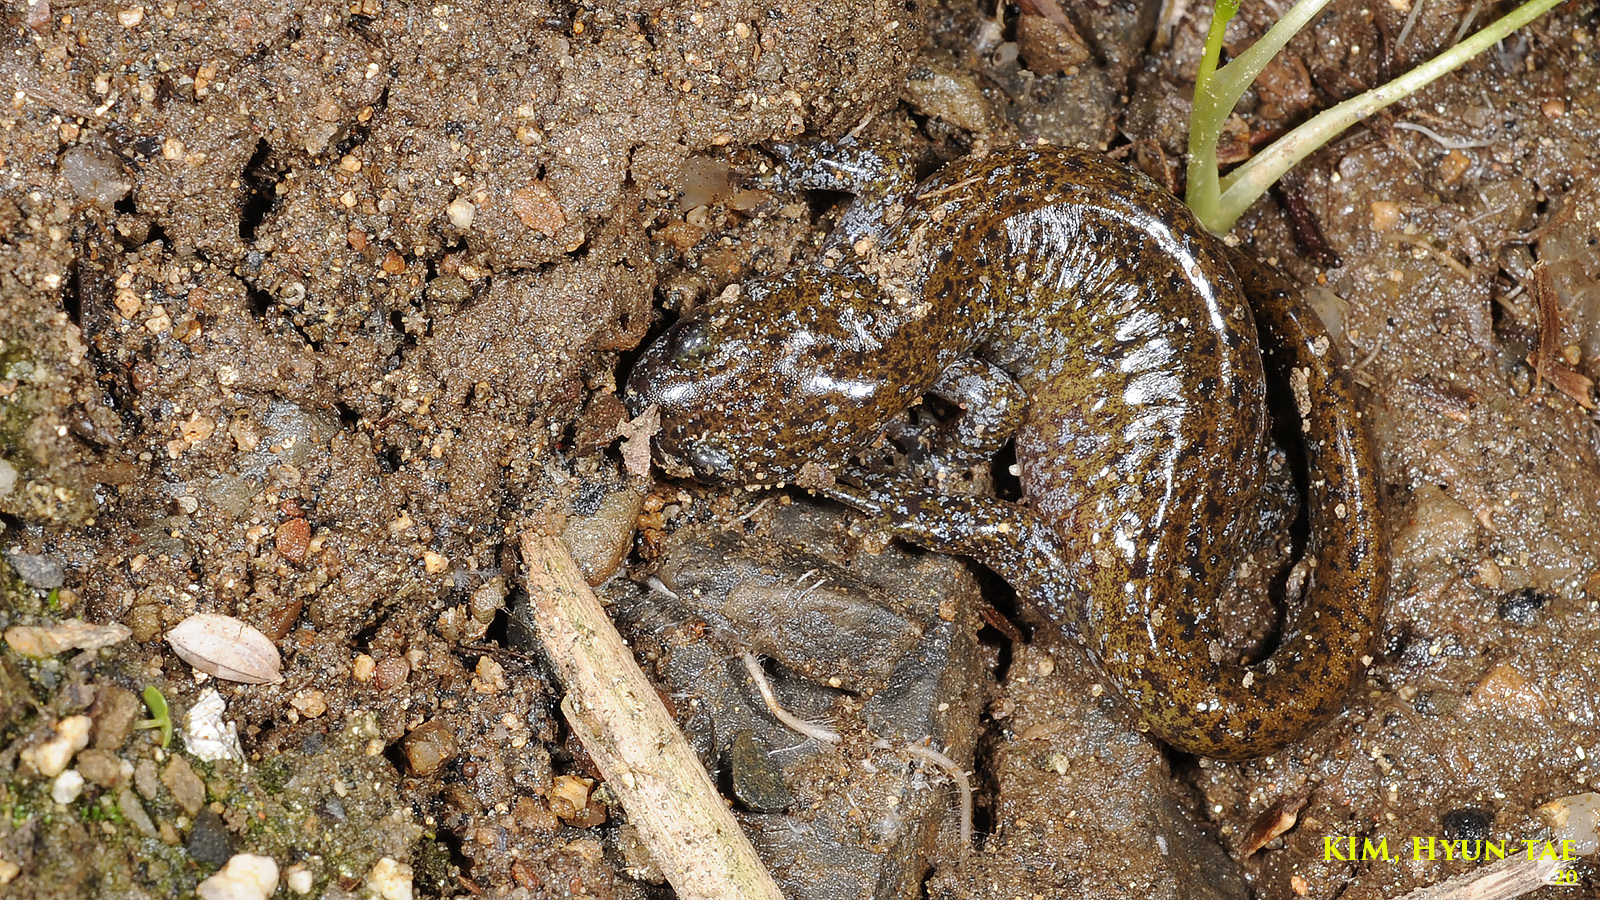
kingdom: Animalia
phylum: Chordata
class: Amphibia
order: Caudata
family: Hynobiidae
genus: Hynobius
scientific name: Hynobius leechii
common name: Gensan salamander
